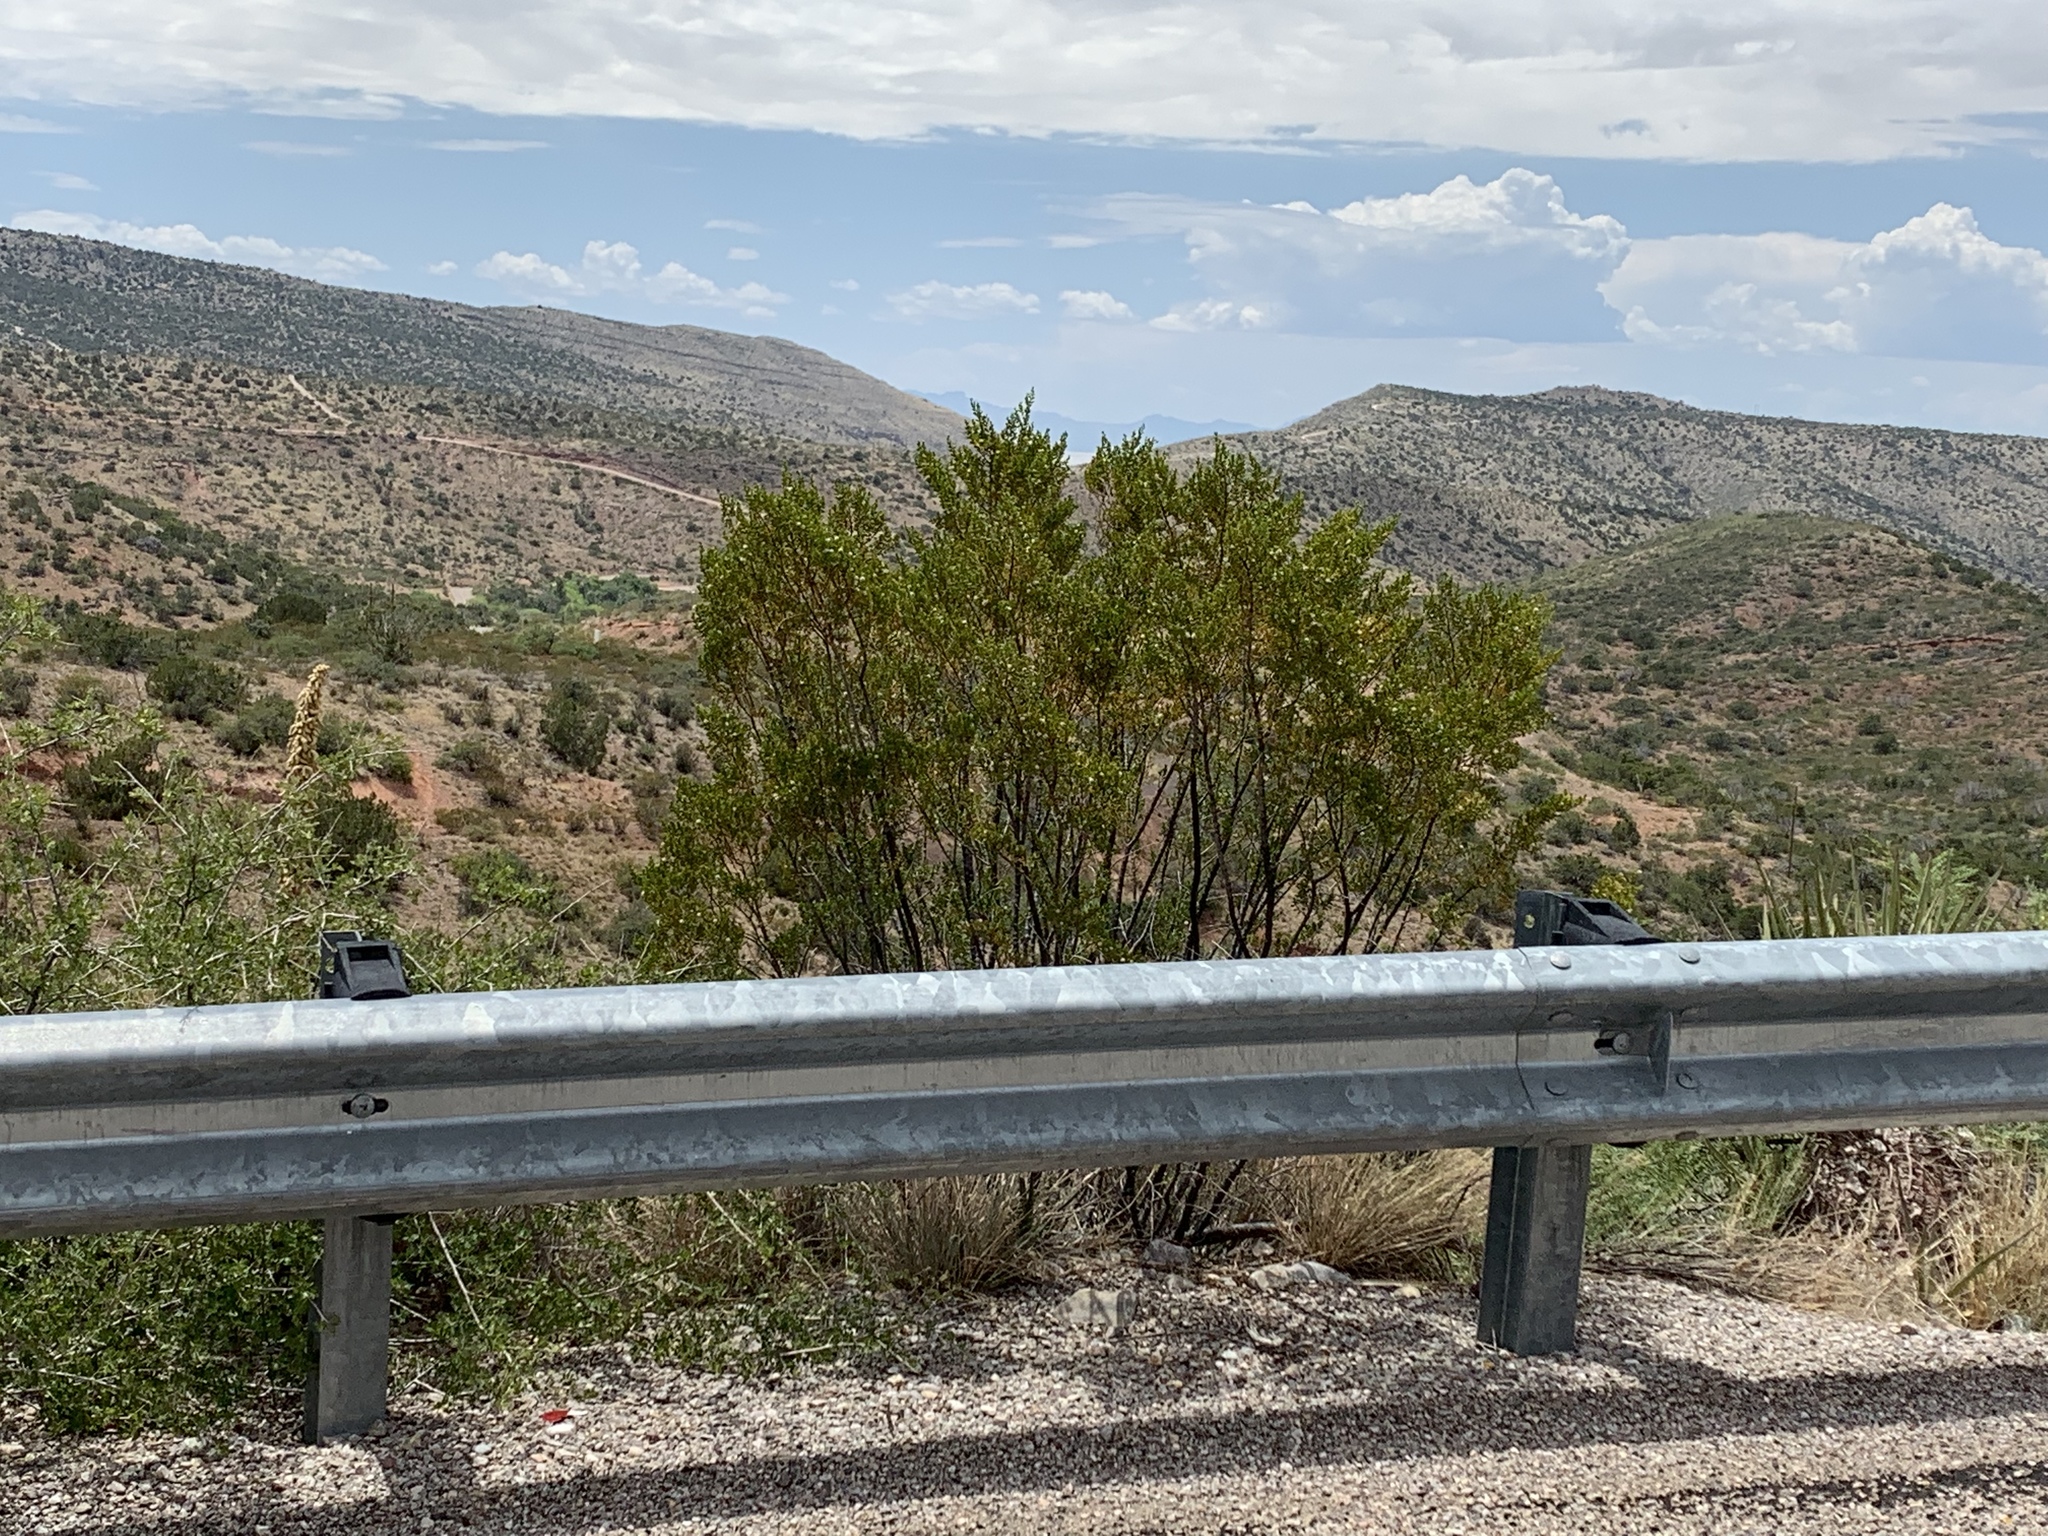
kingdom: Plantae
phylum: Tracheophyta
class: Magnoliopsida
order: Zygophyllales
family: Zygophyllaceae
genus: Larrea
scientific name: Larrea tridentata
